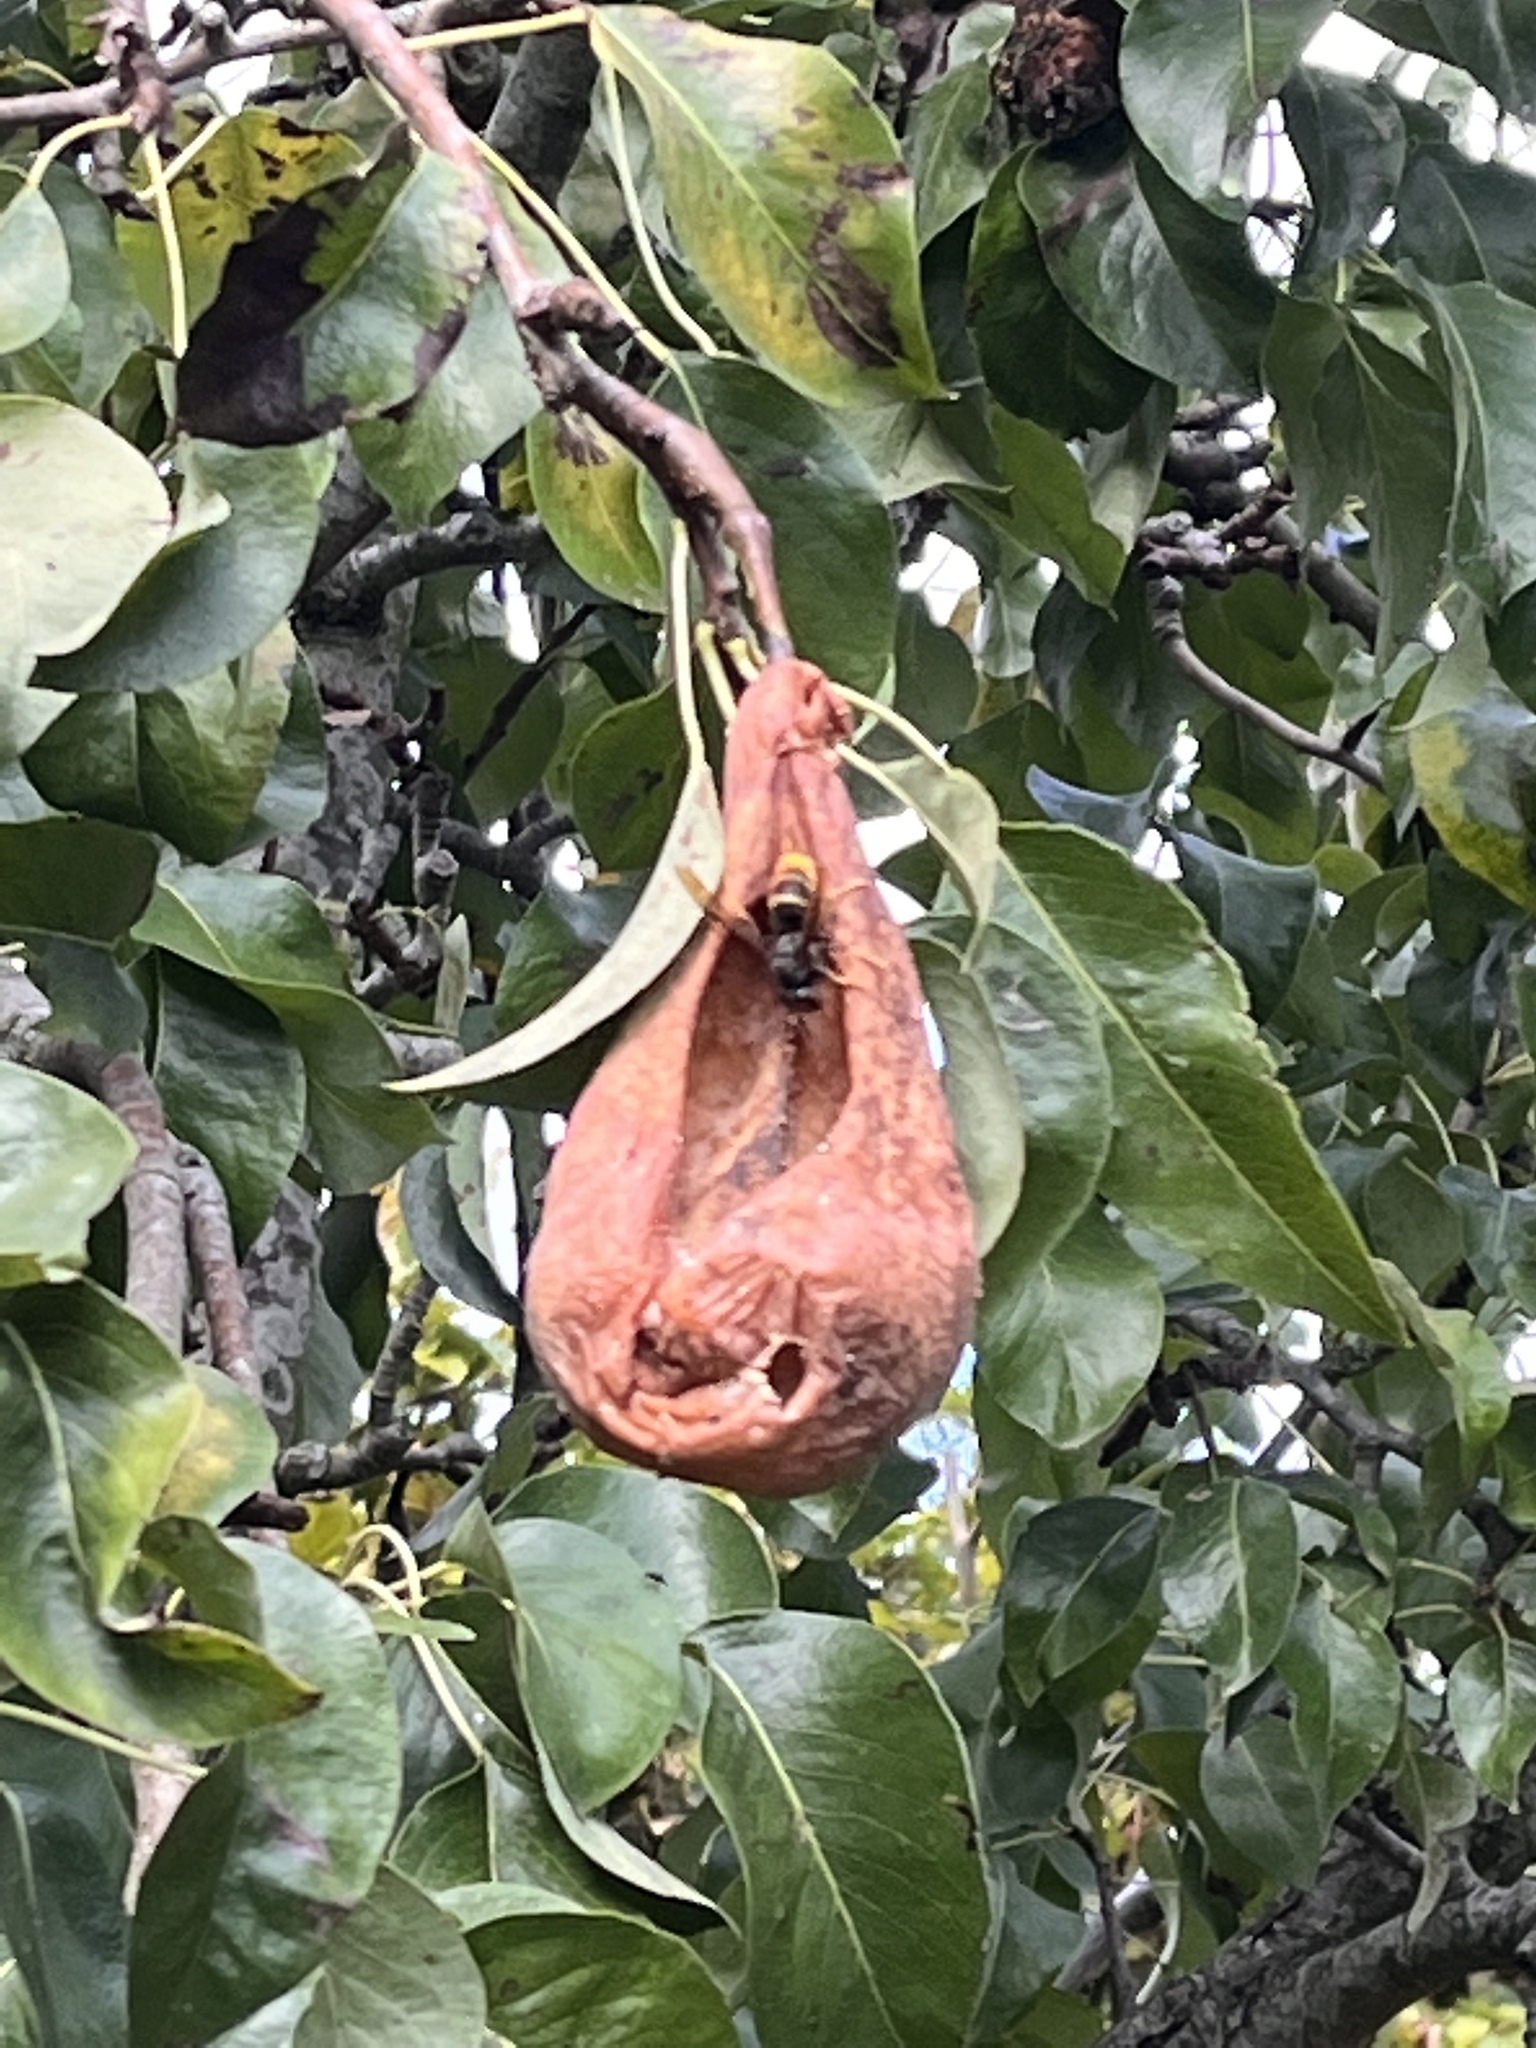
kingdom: Animalia
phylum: Arthropoda
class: Insecta
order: Hymenoptera
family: Vespidae
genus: Vespa
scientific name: Vespa velutina
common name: Asian hornet
